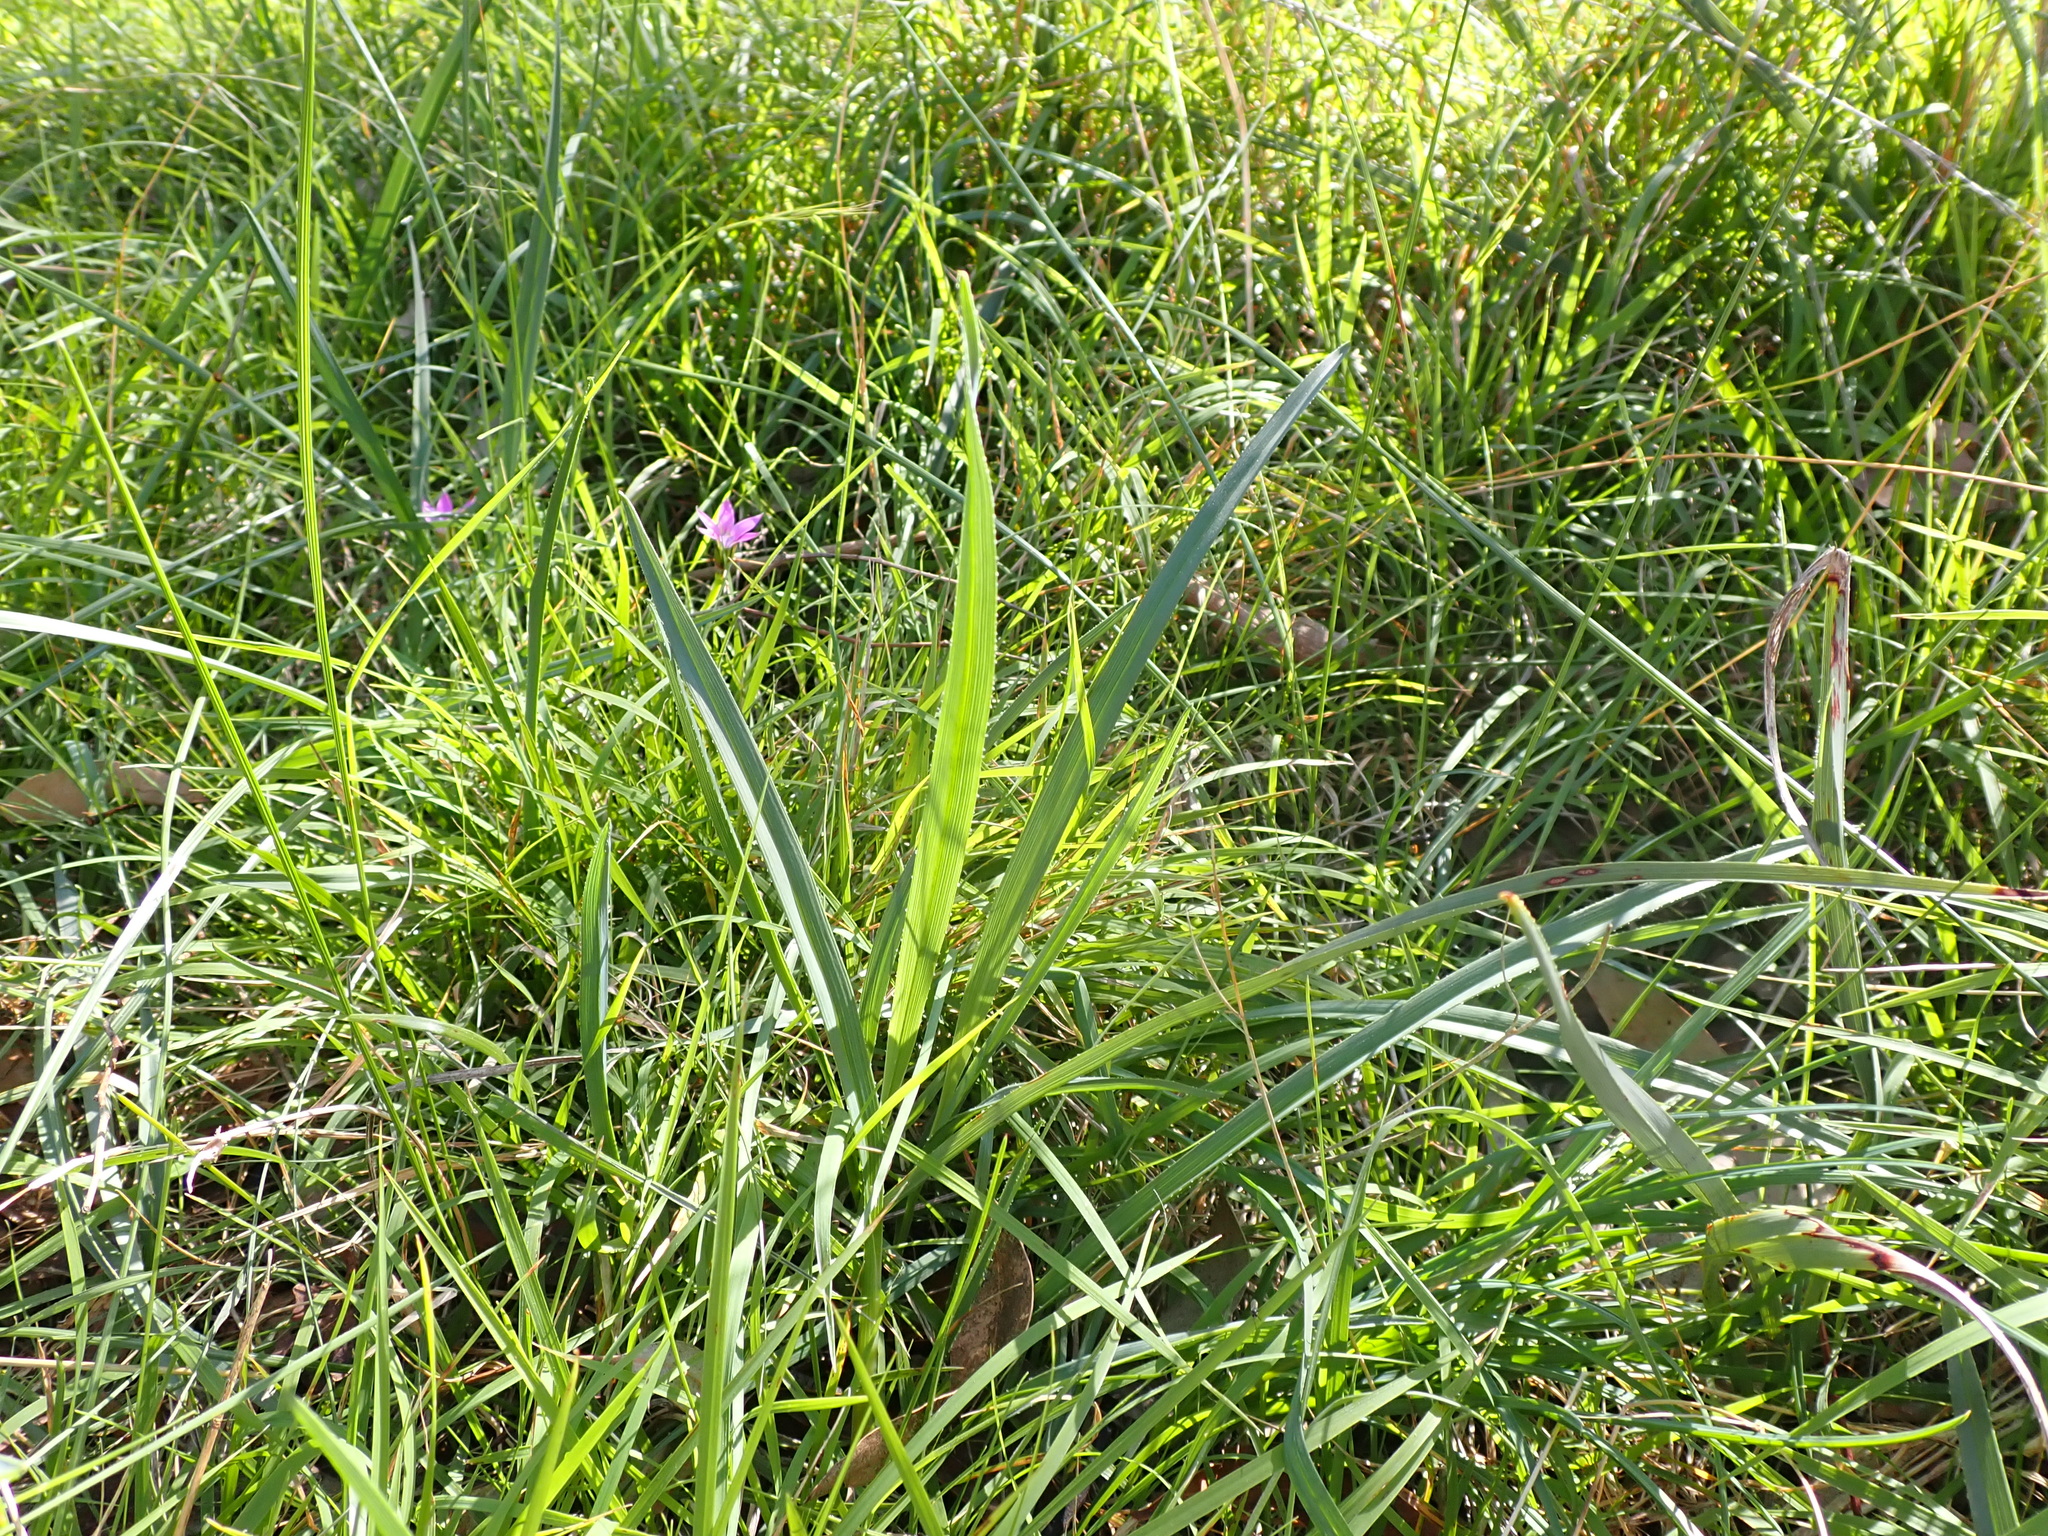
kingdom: Plantae
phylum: Tracheophyta
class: Liliopsida
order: Asparagales
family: Asphodelaceae
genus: Dianella
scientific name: Dianella amoena
